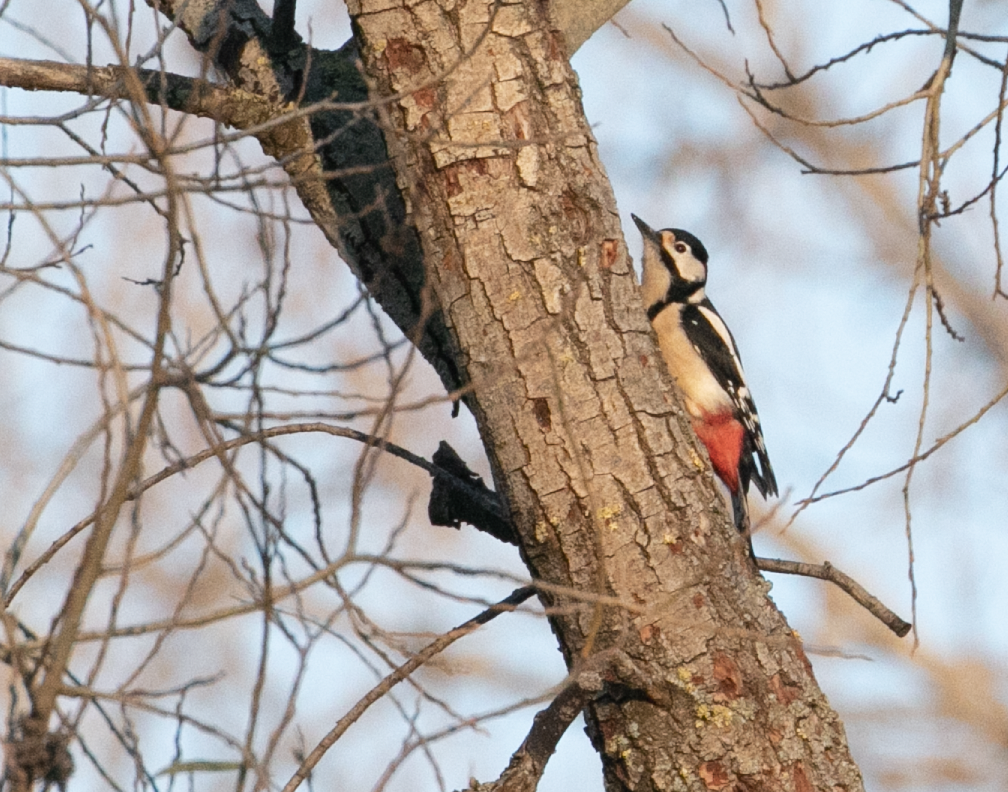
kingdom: Animalia
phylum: Chordata
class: Aves
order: Piciformes
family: Picidae
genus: Dendrocopos
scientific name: Dendrocopos major
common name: Great spotted woodpecker
